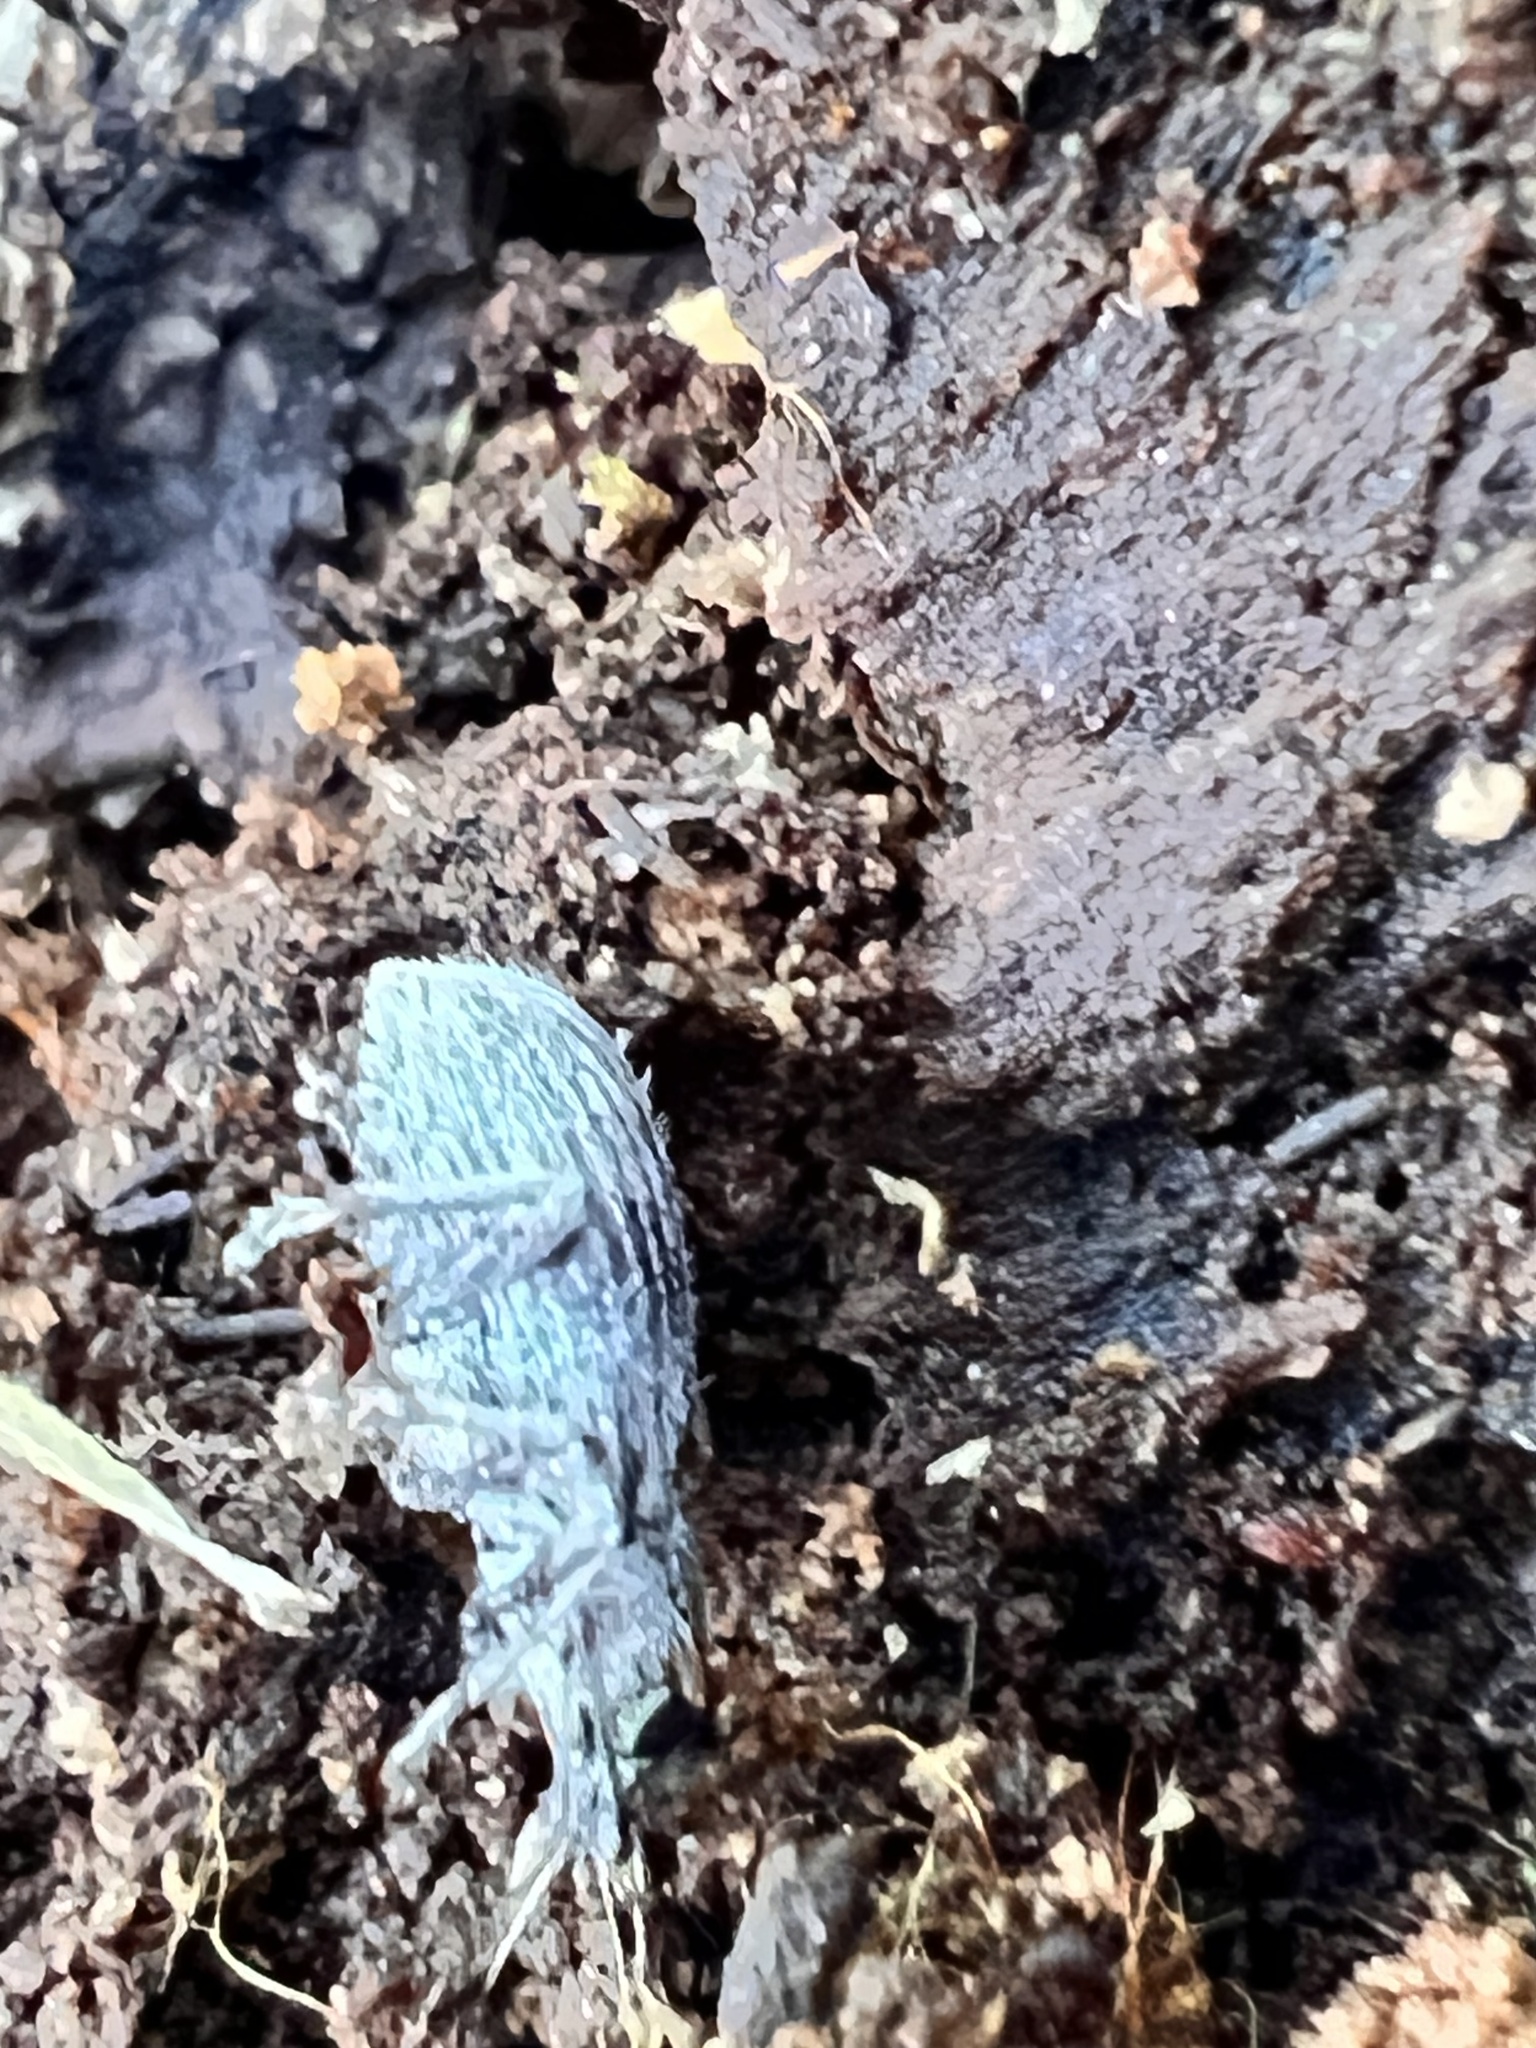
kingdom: Animalia
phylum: Arthropoda
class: Insecta
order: Coleoptera
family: Curculionidae
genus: Cyrtepistomus
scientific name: Cyrtepistomus castaneus
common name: Weevil
